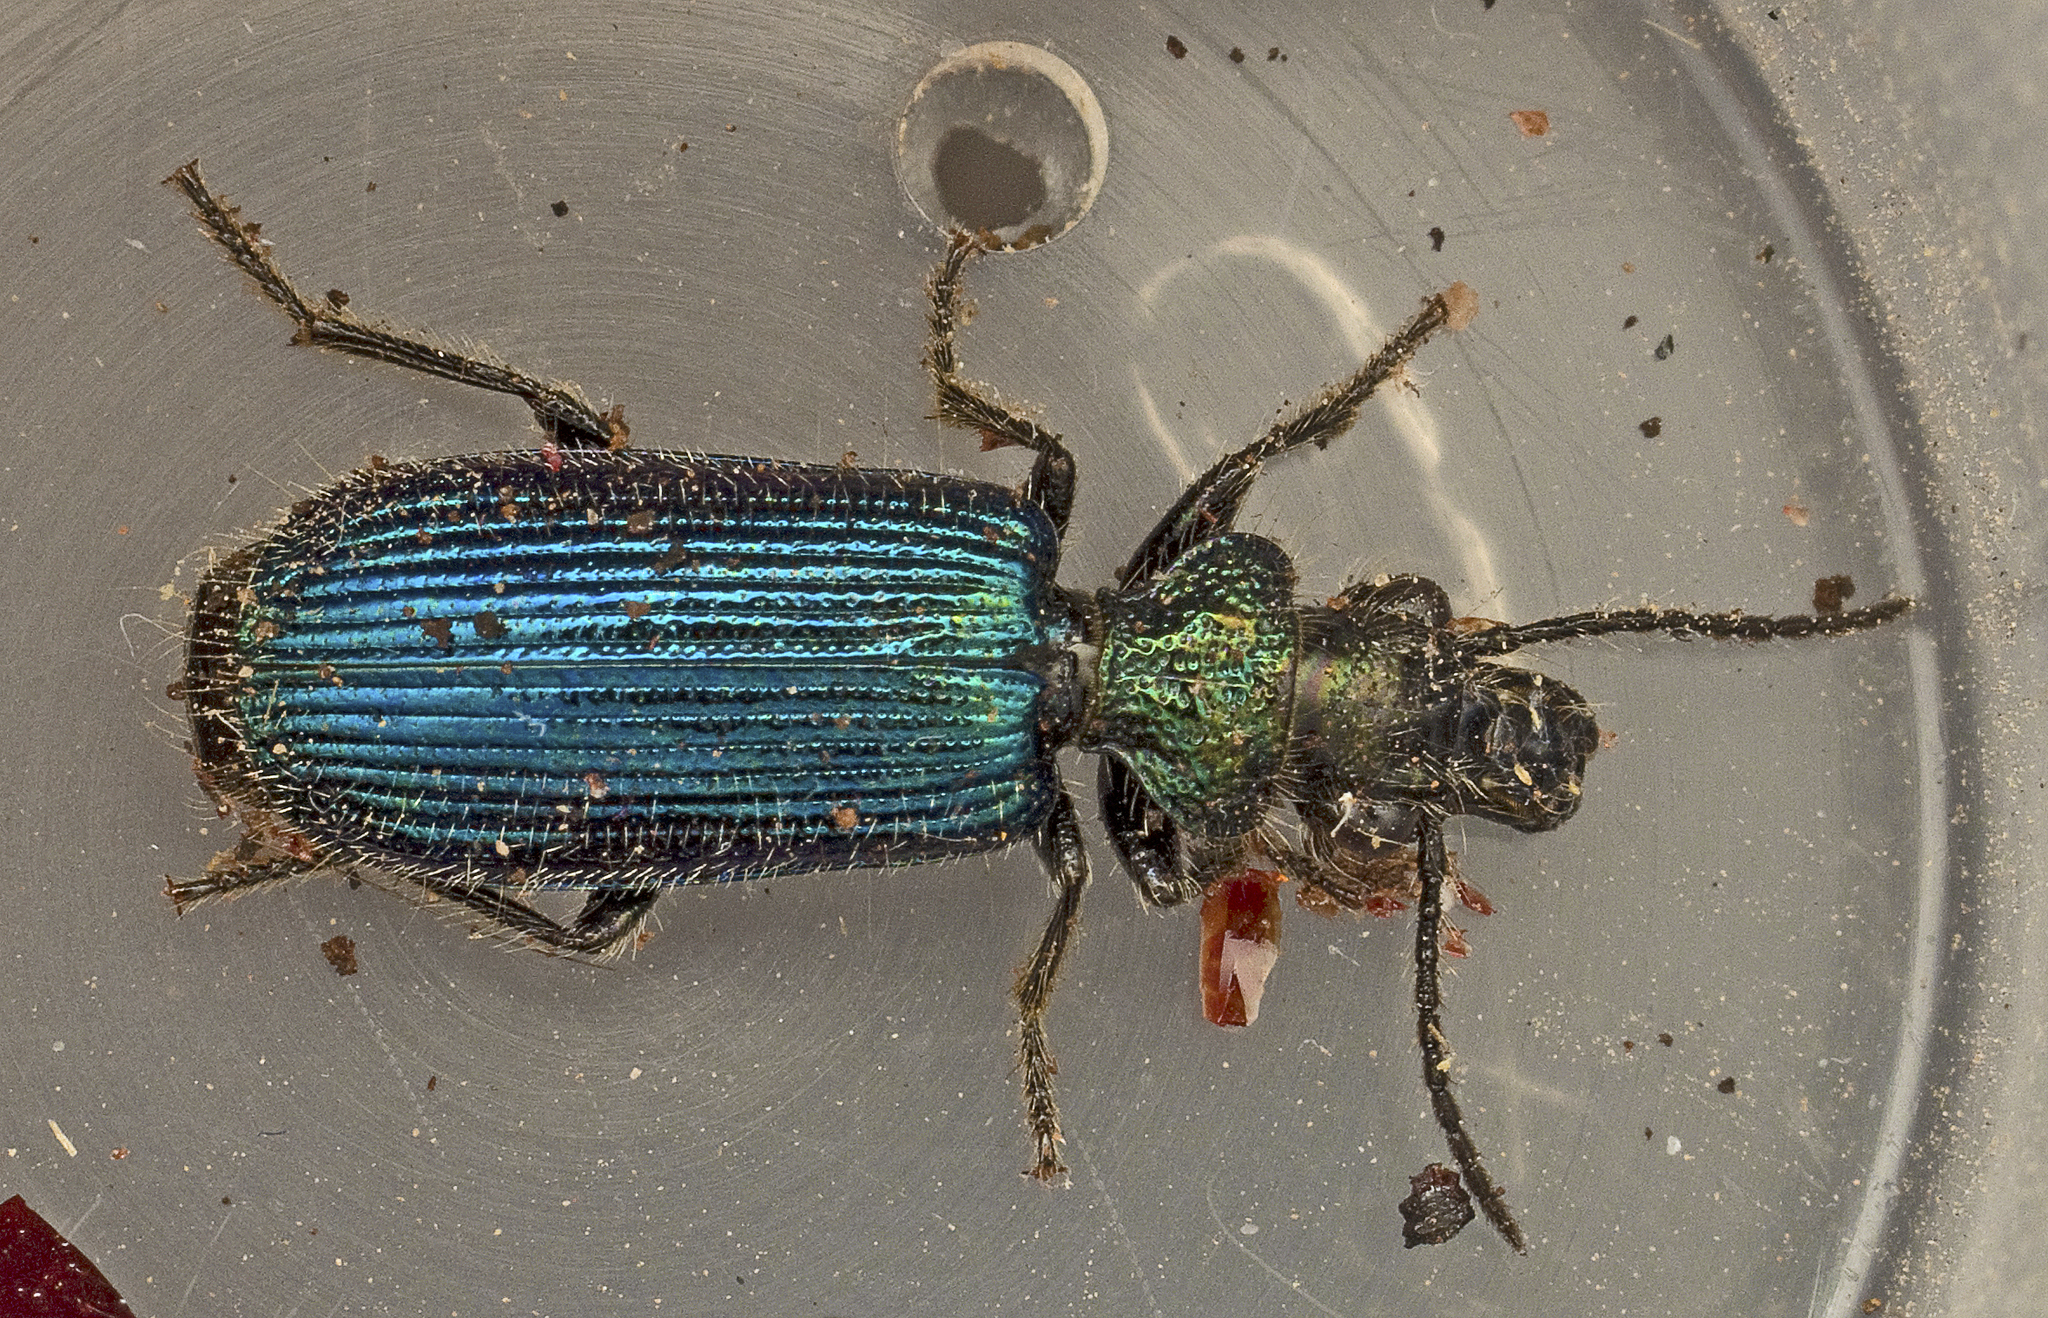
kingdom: Animalia
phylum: Arthropoda
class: Insecta
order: Coleoptera
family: Carabidae
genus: Dicranoglossus
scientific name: Dicranoglossus resplendens
